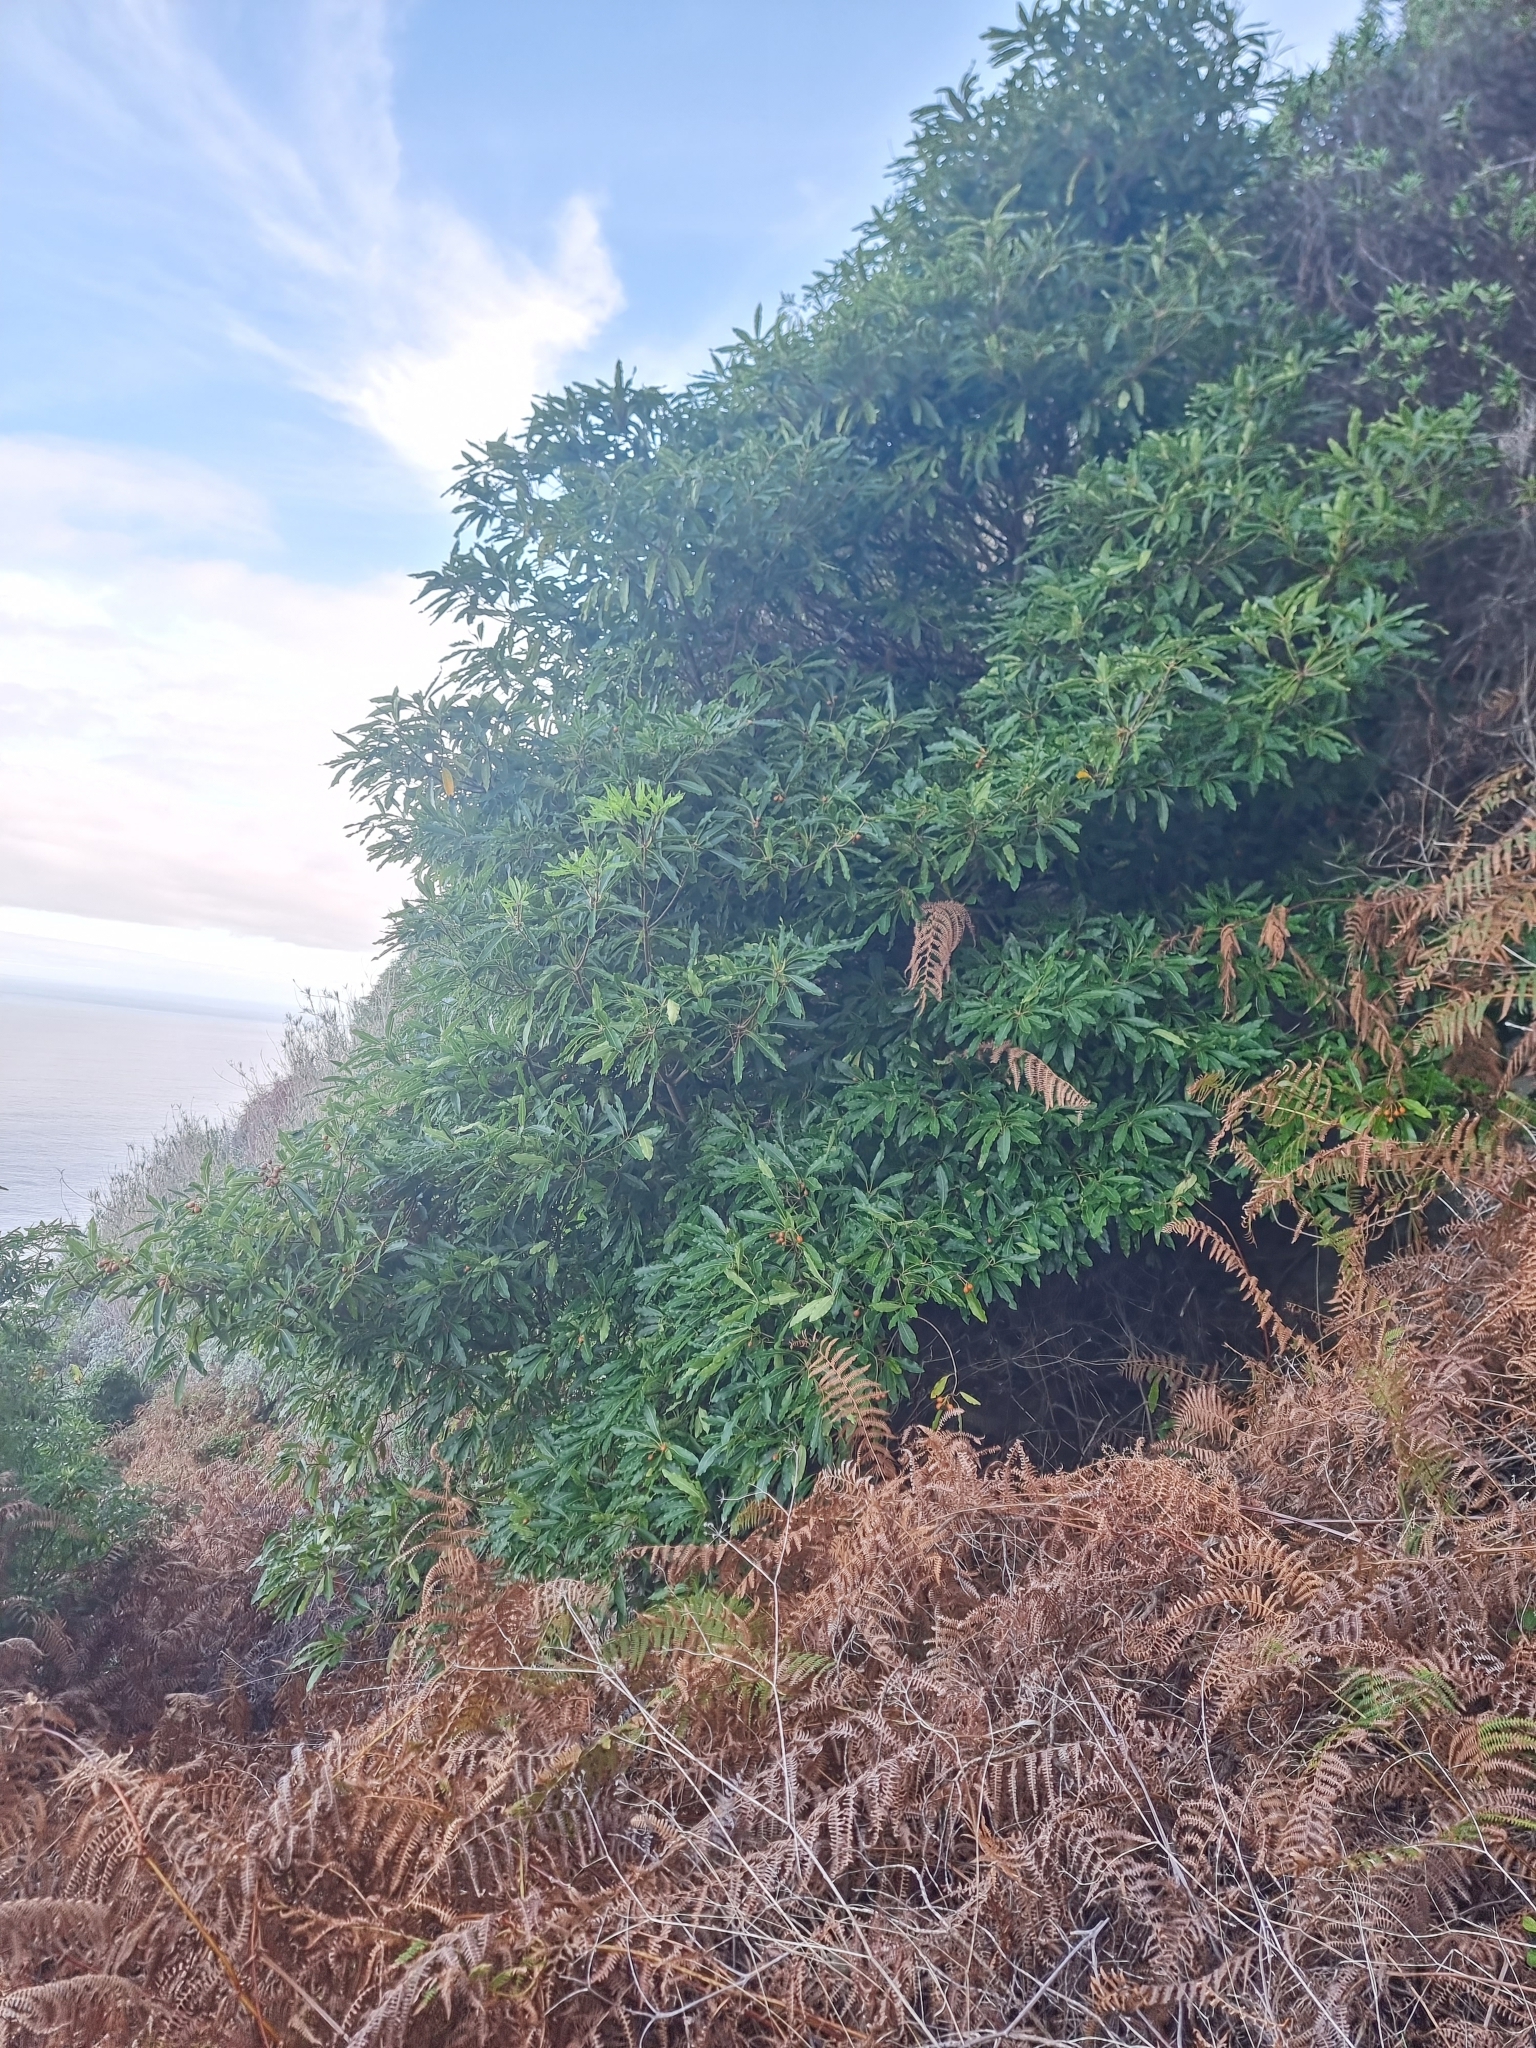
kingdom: Plantae
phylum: Tracheophyta
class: Magnoliopsida
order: Apiales
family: Pittosporaceae
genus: Pittosporum
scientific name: Pittosporum undulatum
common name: Australian cheesewood
